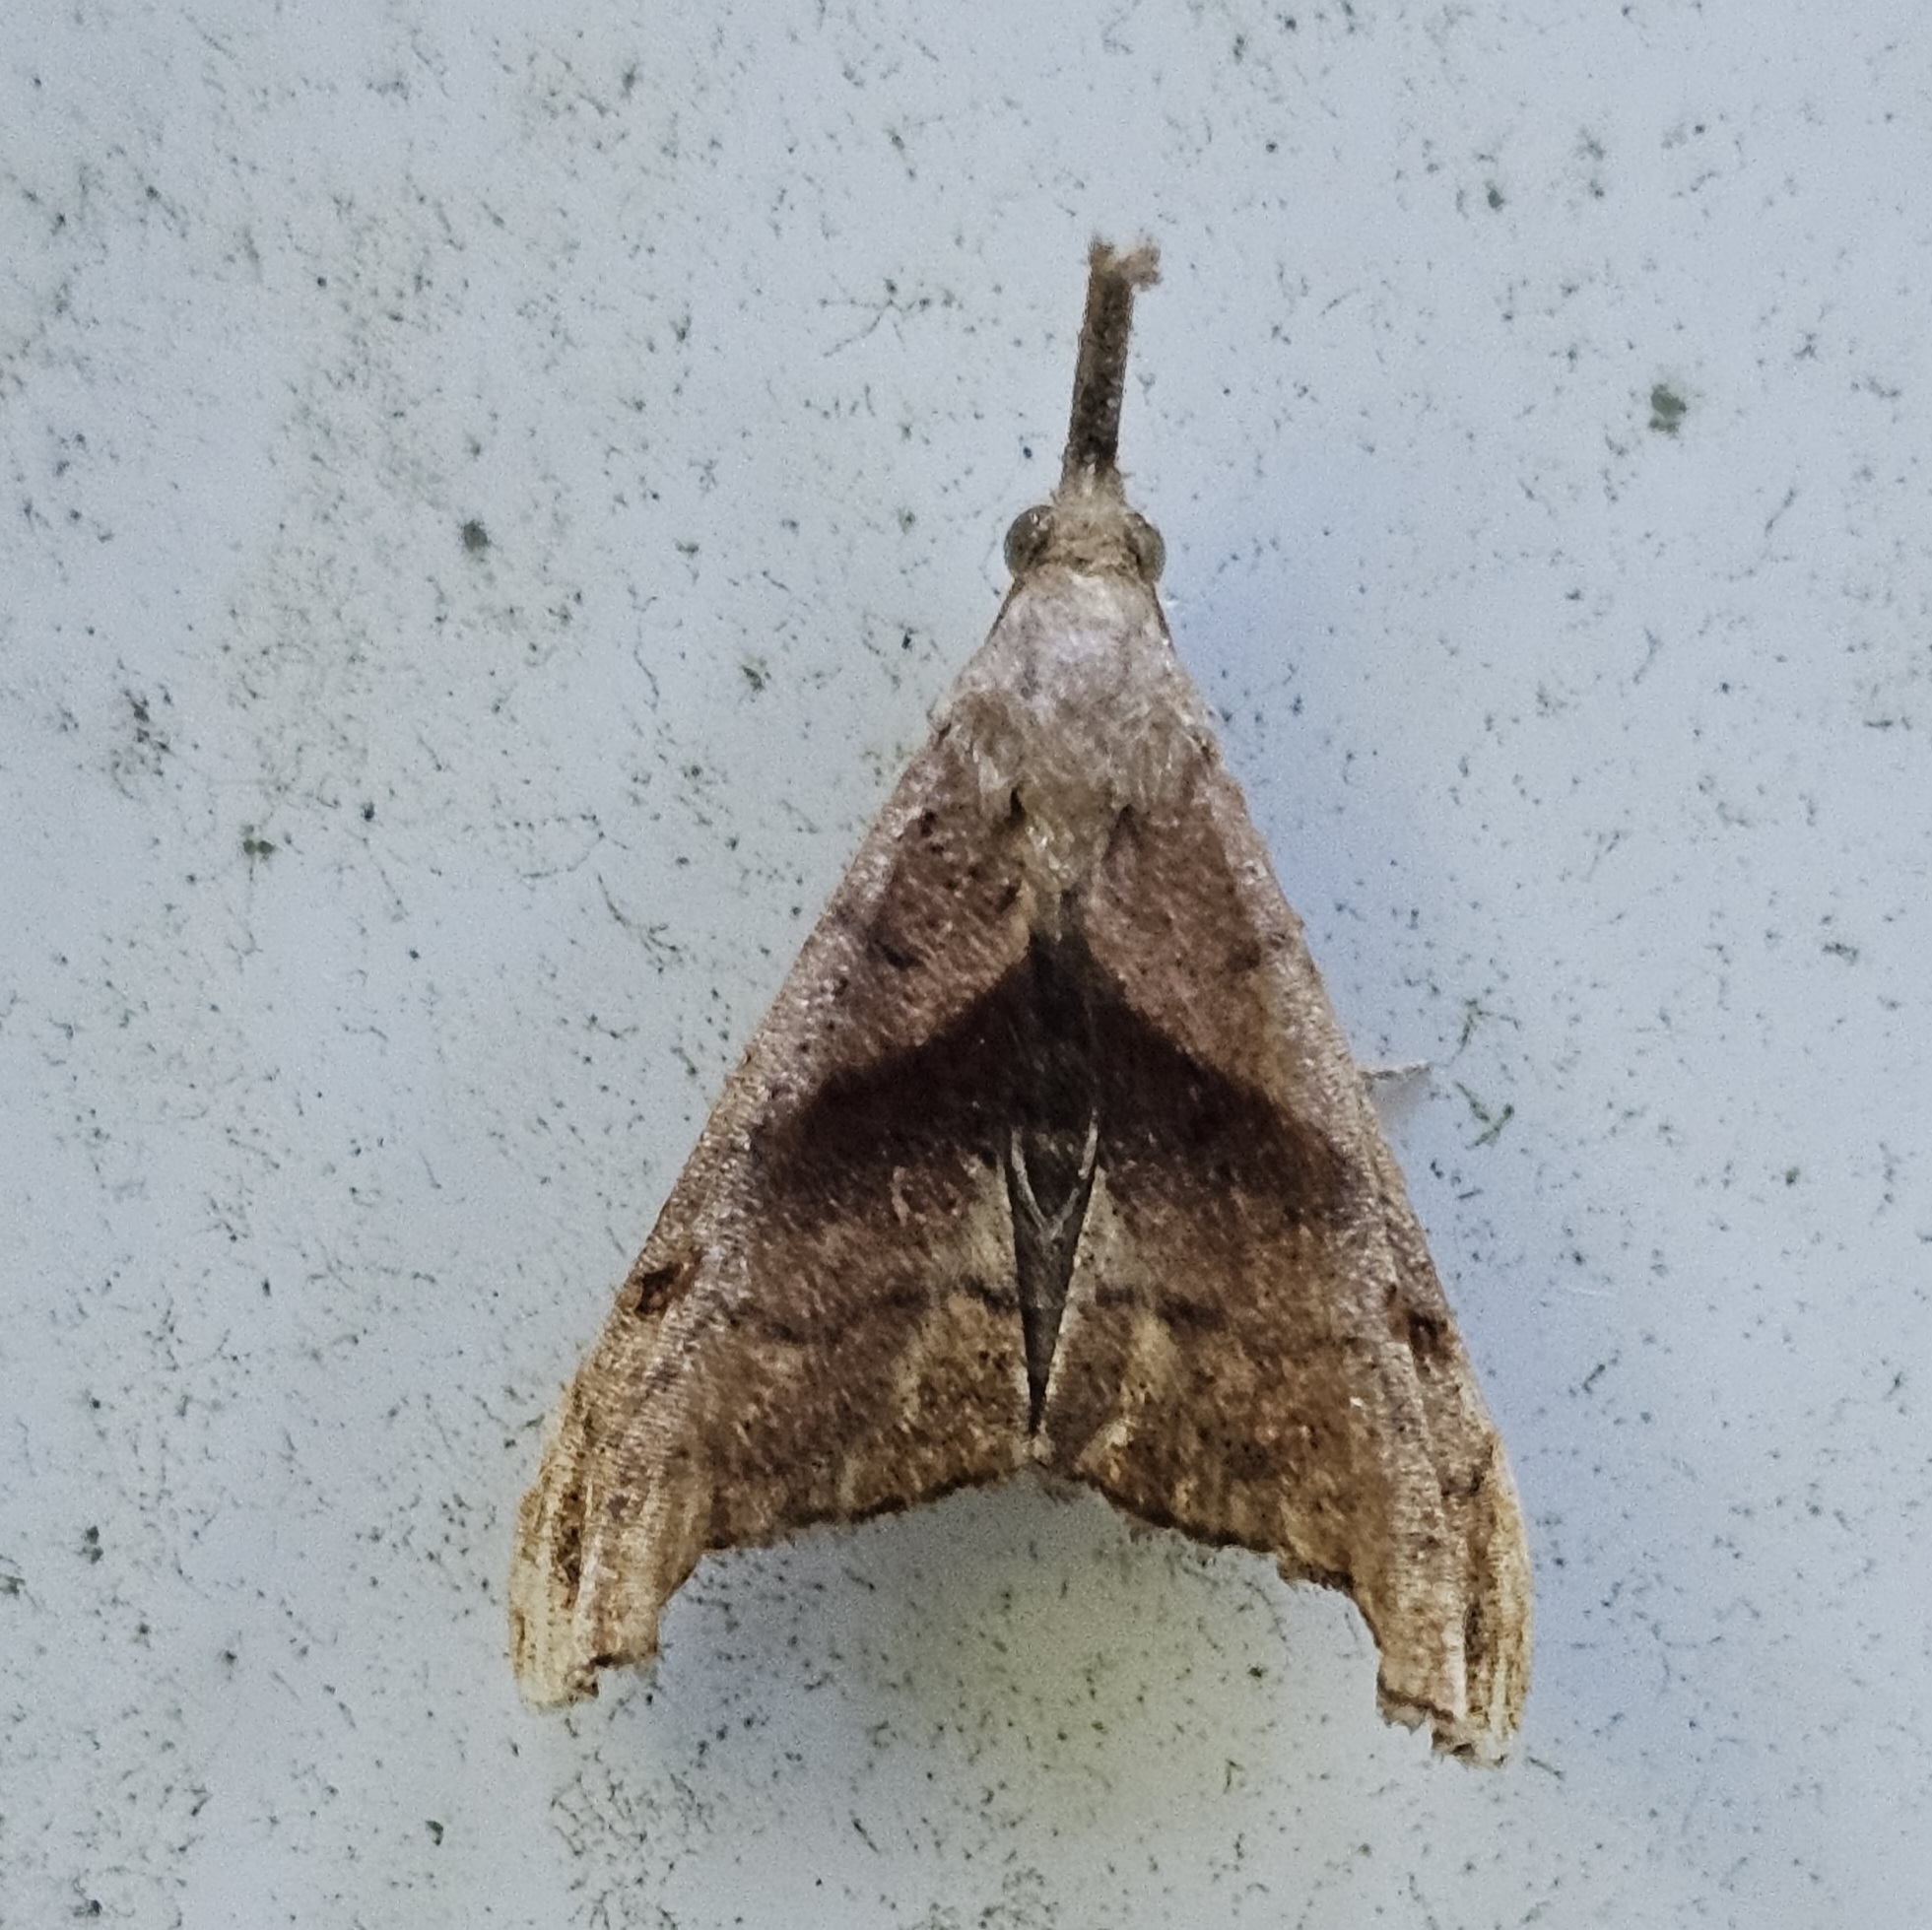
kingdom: Animalia
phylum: Arthropoda
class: Insecta
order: Lepidoptera
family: Erebidae
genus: Palthis
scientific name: Palthis angulalis
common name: Dark-spotted palthis moth
